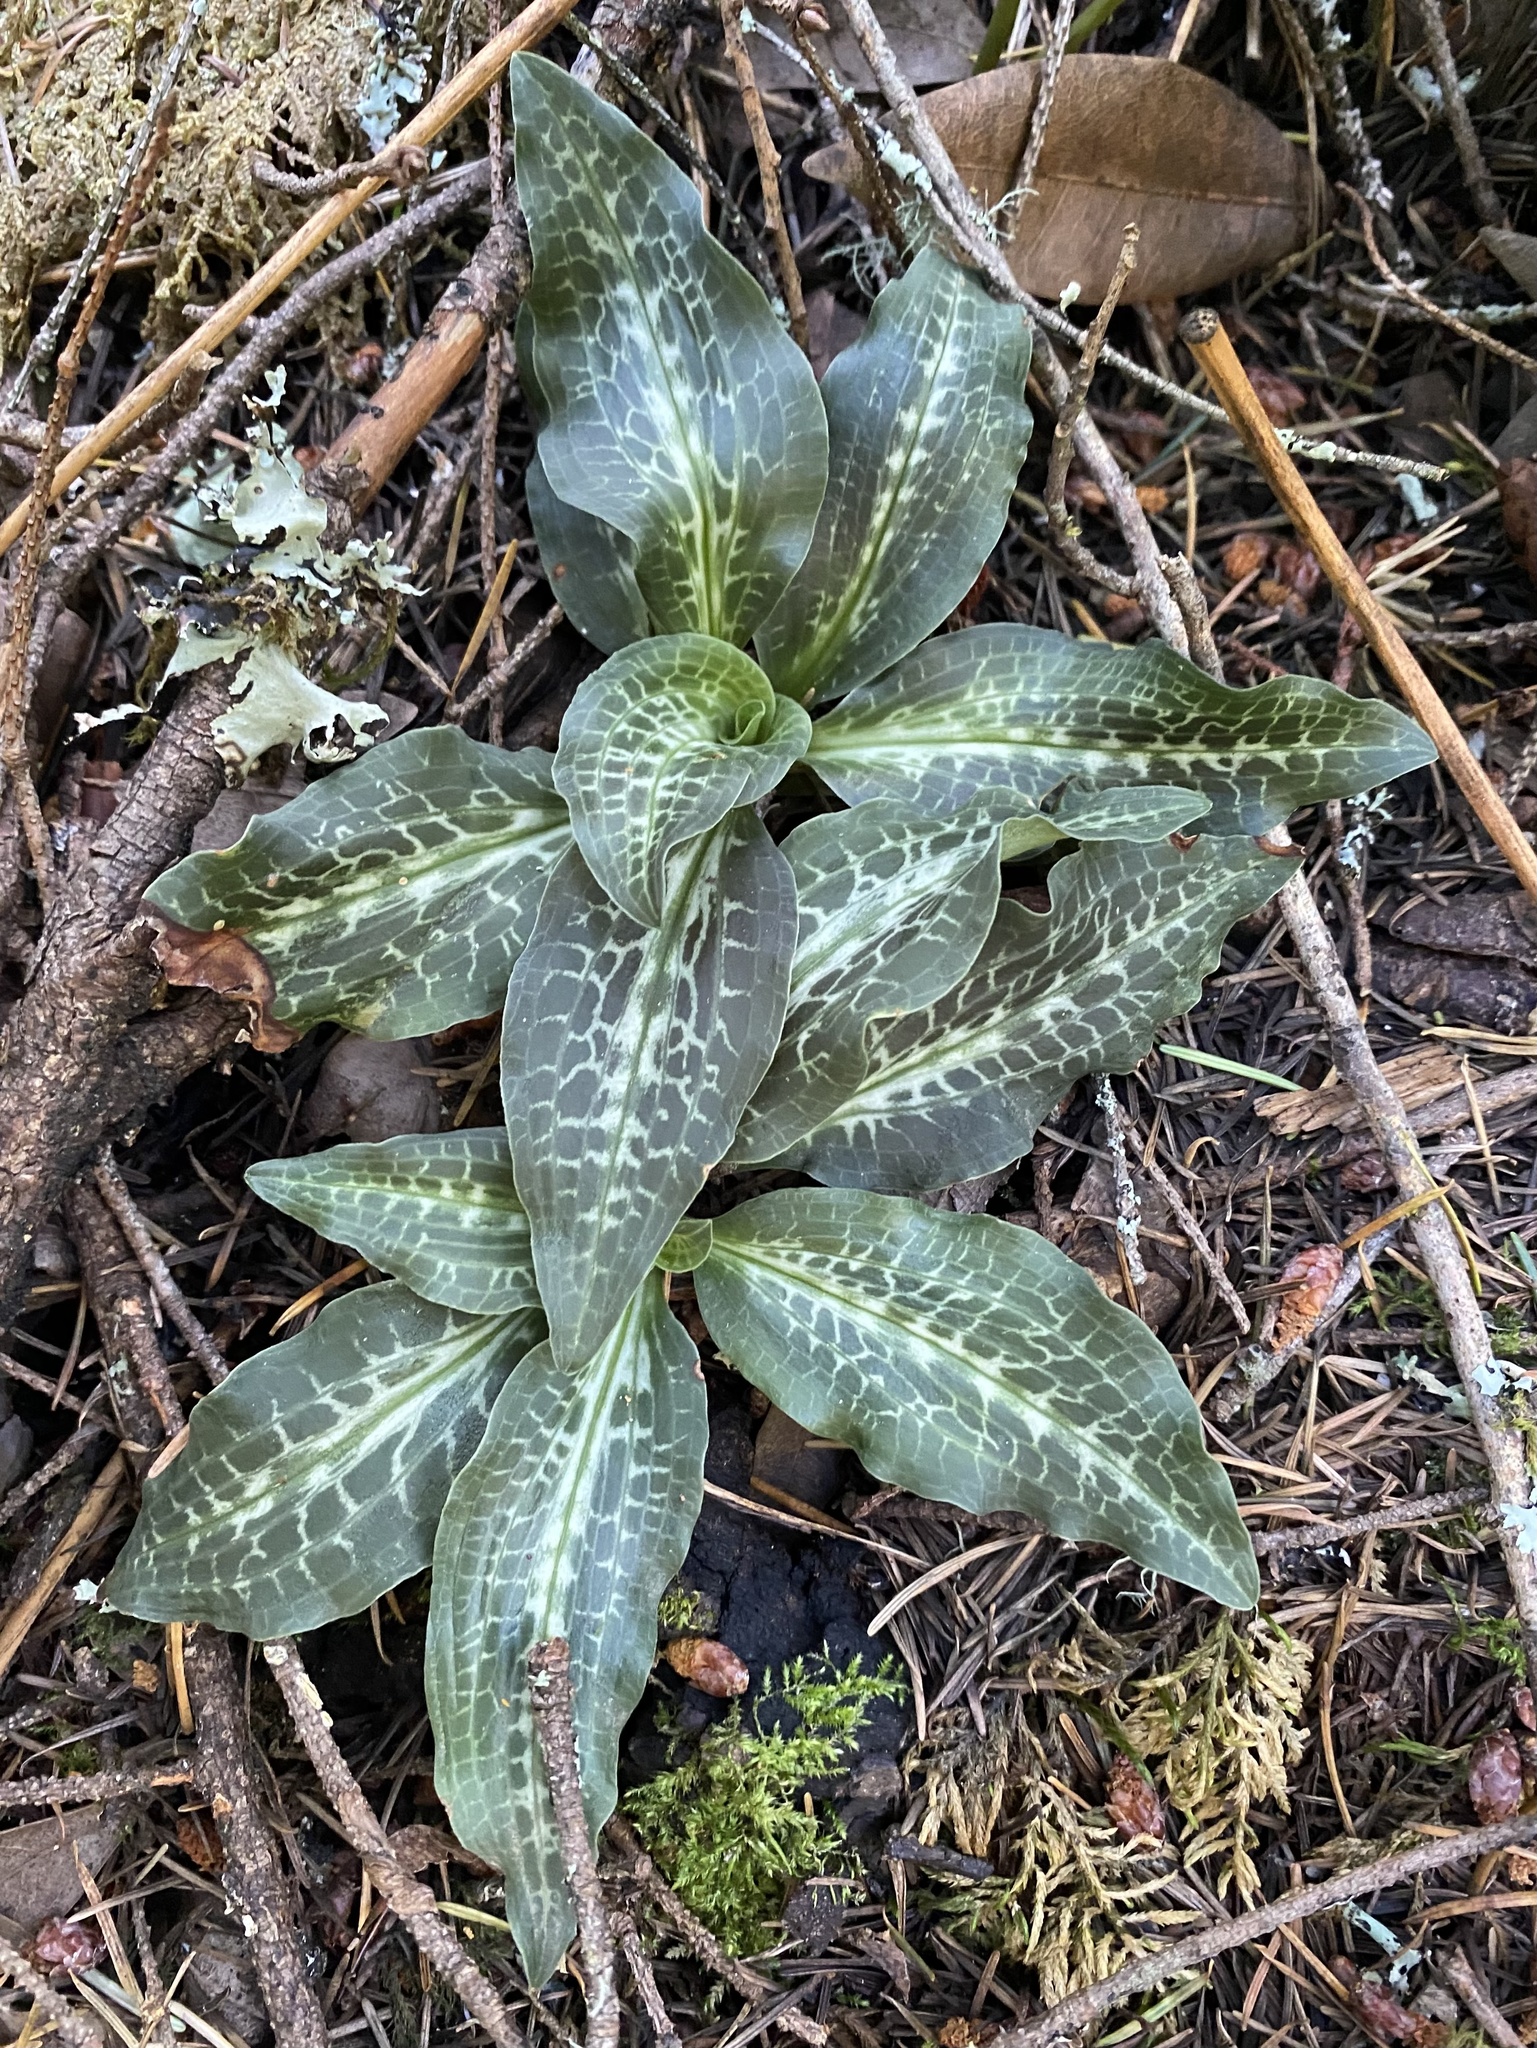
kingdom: Plantae
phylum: Tracheophyta
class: Liliopsida
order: Asparagales
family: Orchidaceae
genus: Goodyera
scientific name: Goodyera oblongifolia
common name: Giant rattlesnake-plantain
